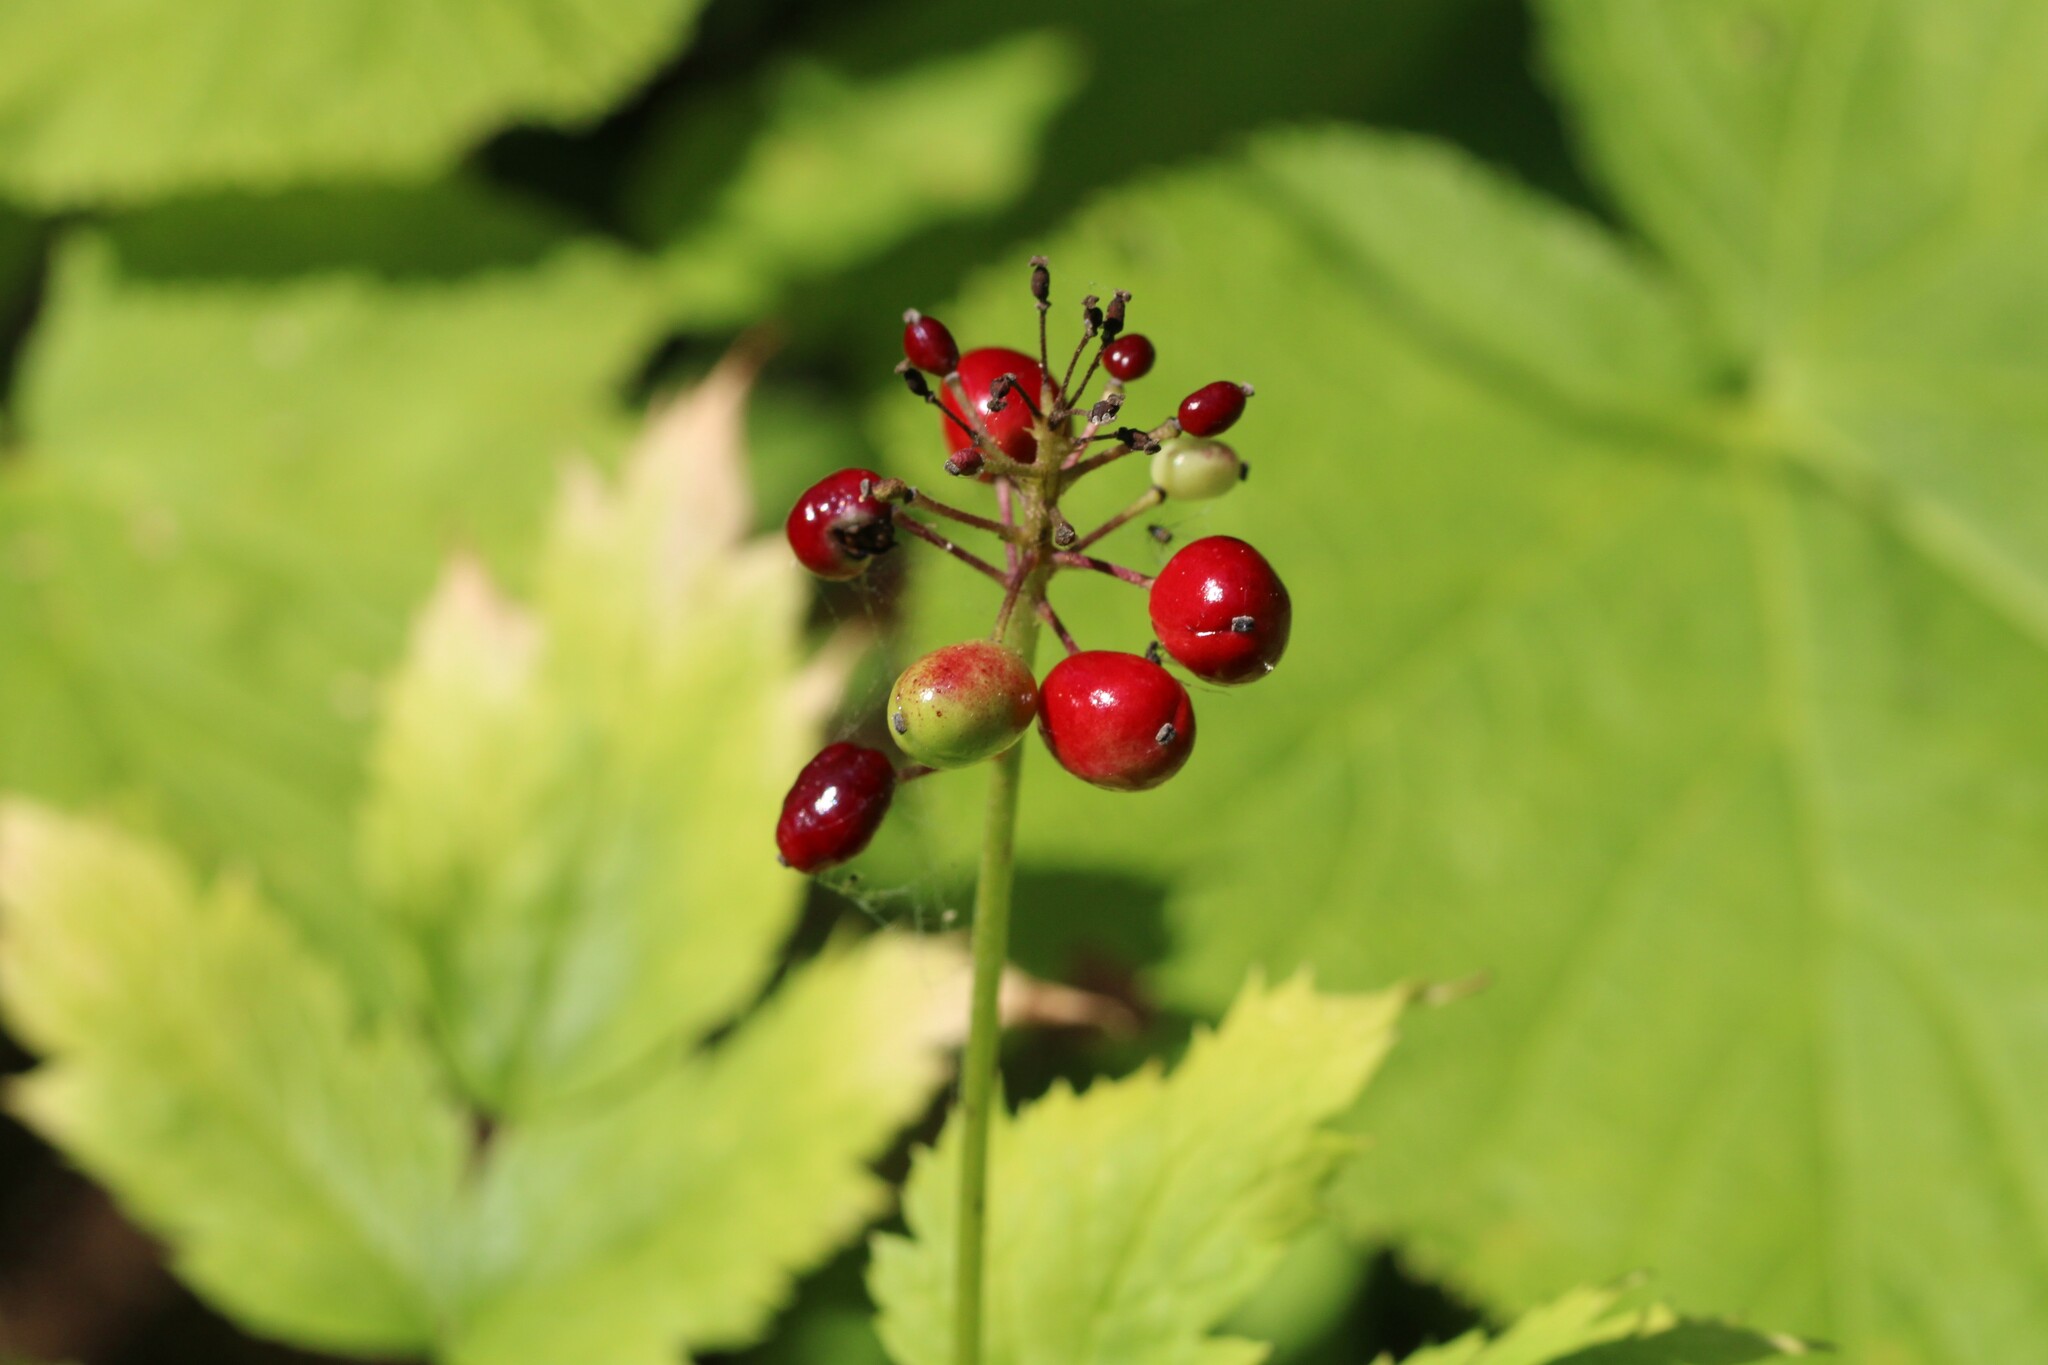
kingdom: Plantae
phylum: Tracheophyta
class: Magnoliopsida
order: Ranunculales
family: Ranunculaceae
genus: Actaea
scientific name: Actaea rubra
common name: Red baneberry
